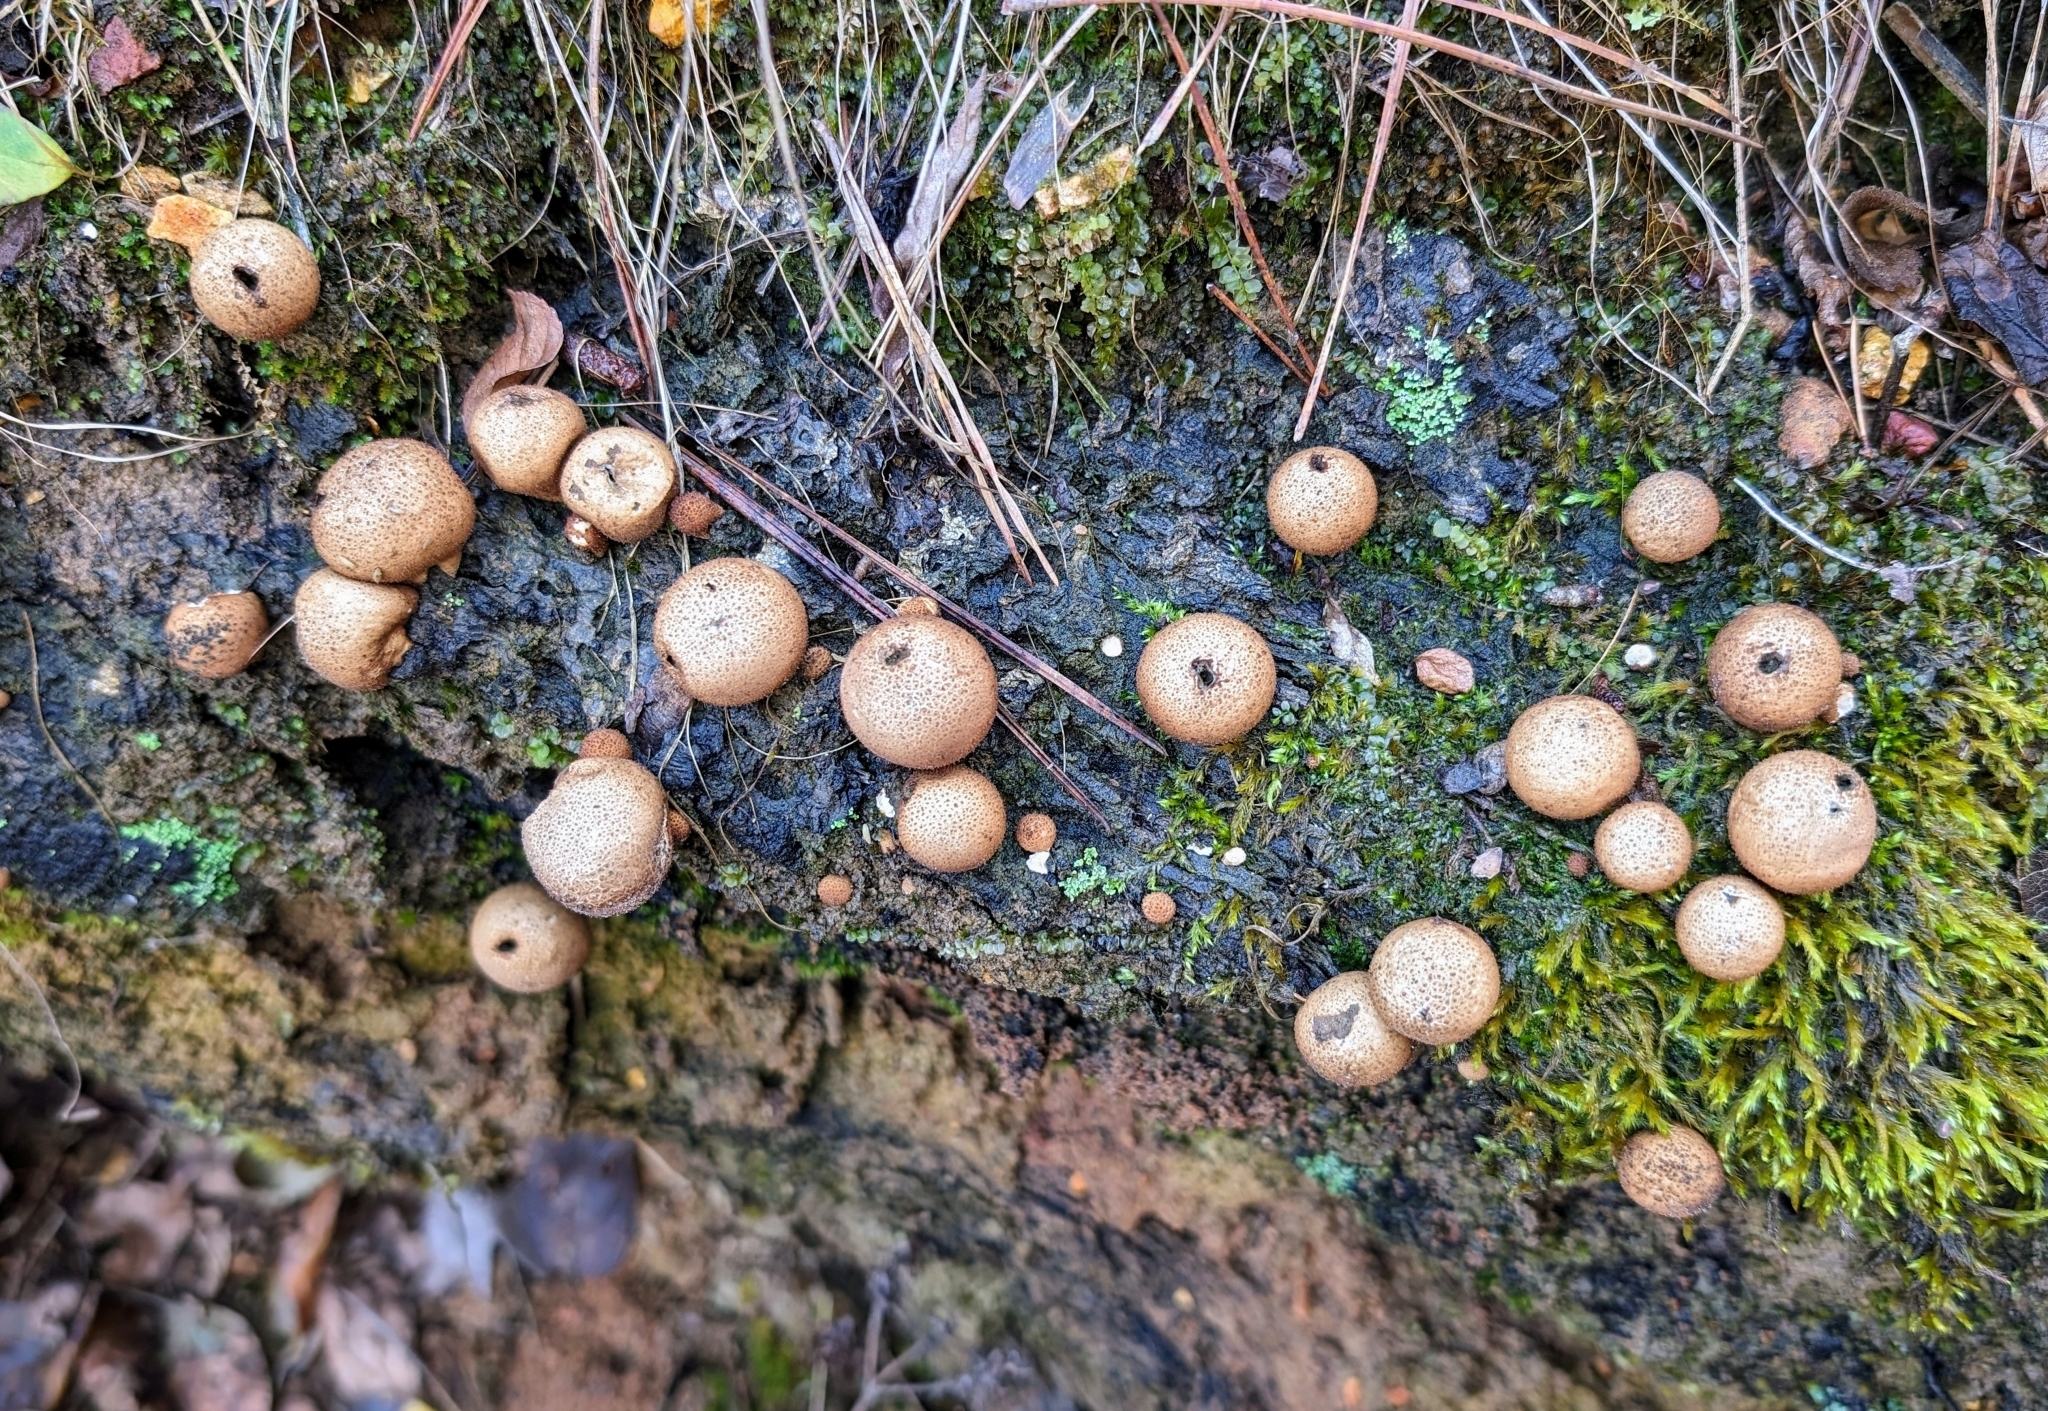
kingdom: Fungi
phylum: Basidiomycota
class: Agaricomycetes
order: Agaricales
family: Lycoperdaceae
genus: Apioperdon
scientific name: Apioperdon pyriforme
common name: Pear-shaped puffball
